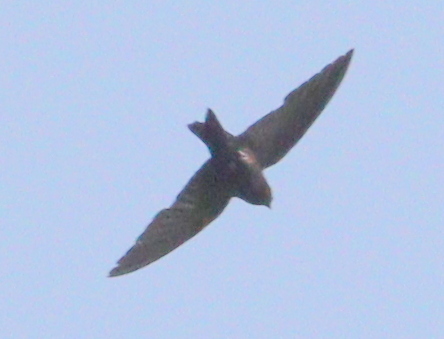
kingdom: Animalia
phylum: Chordata
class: Aves
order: Passeriformes
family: Hirundinidae
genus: Psalidoprocne
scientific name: Psalidoprocne obscura
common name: Fanti saw-wing
